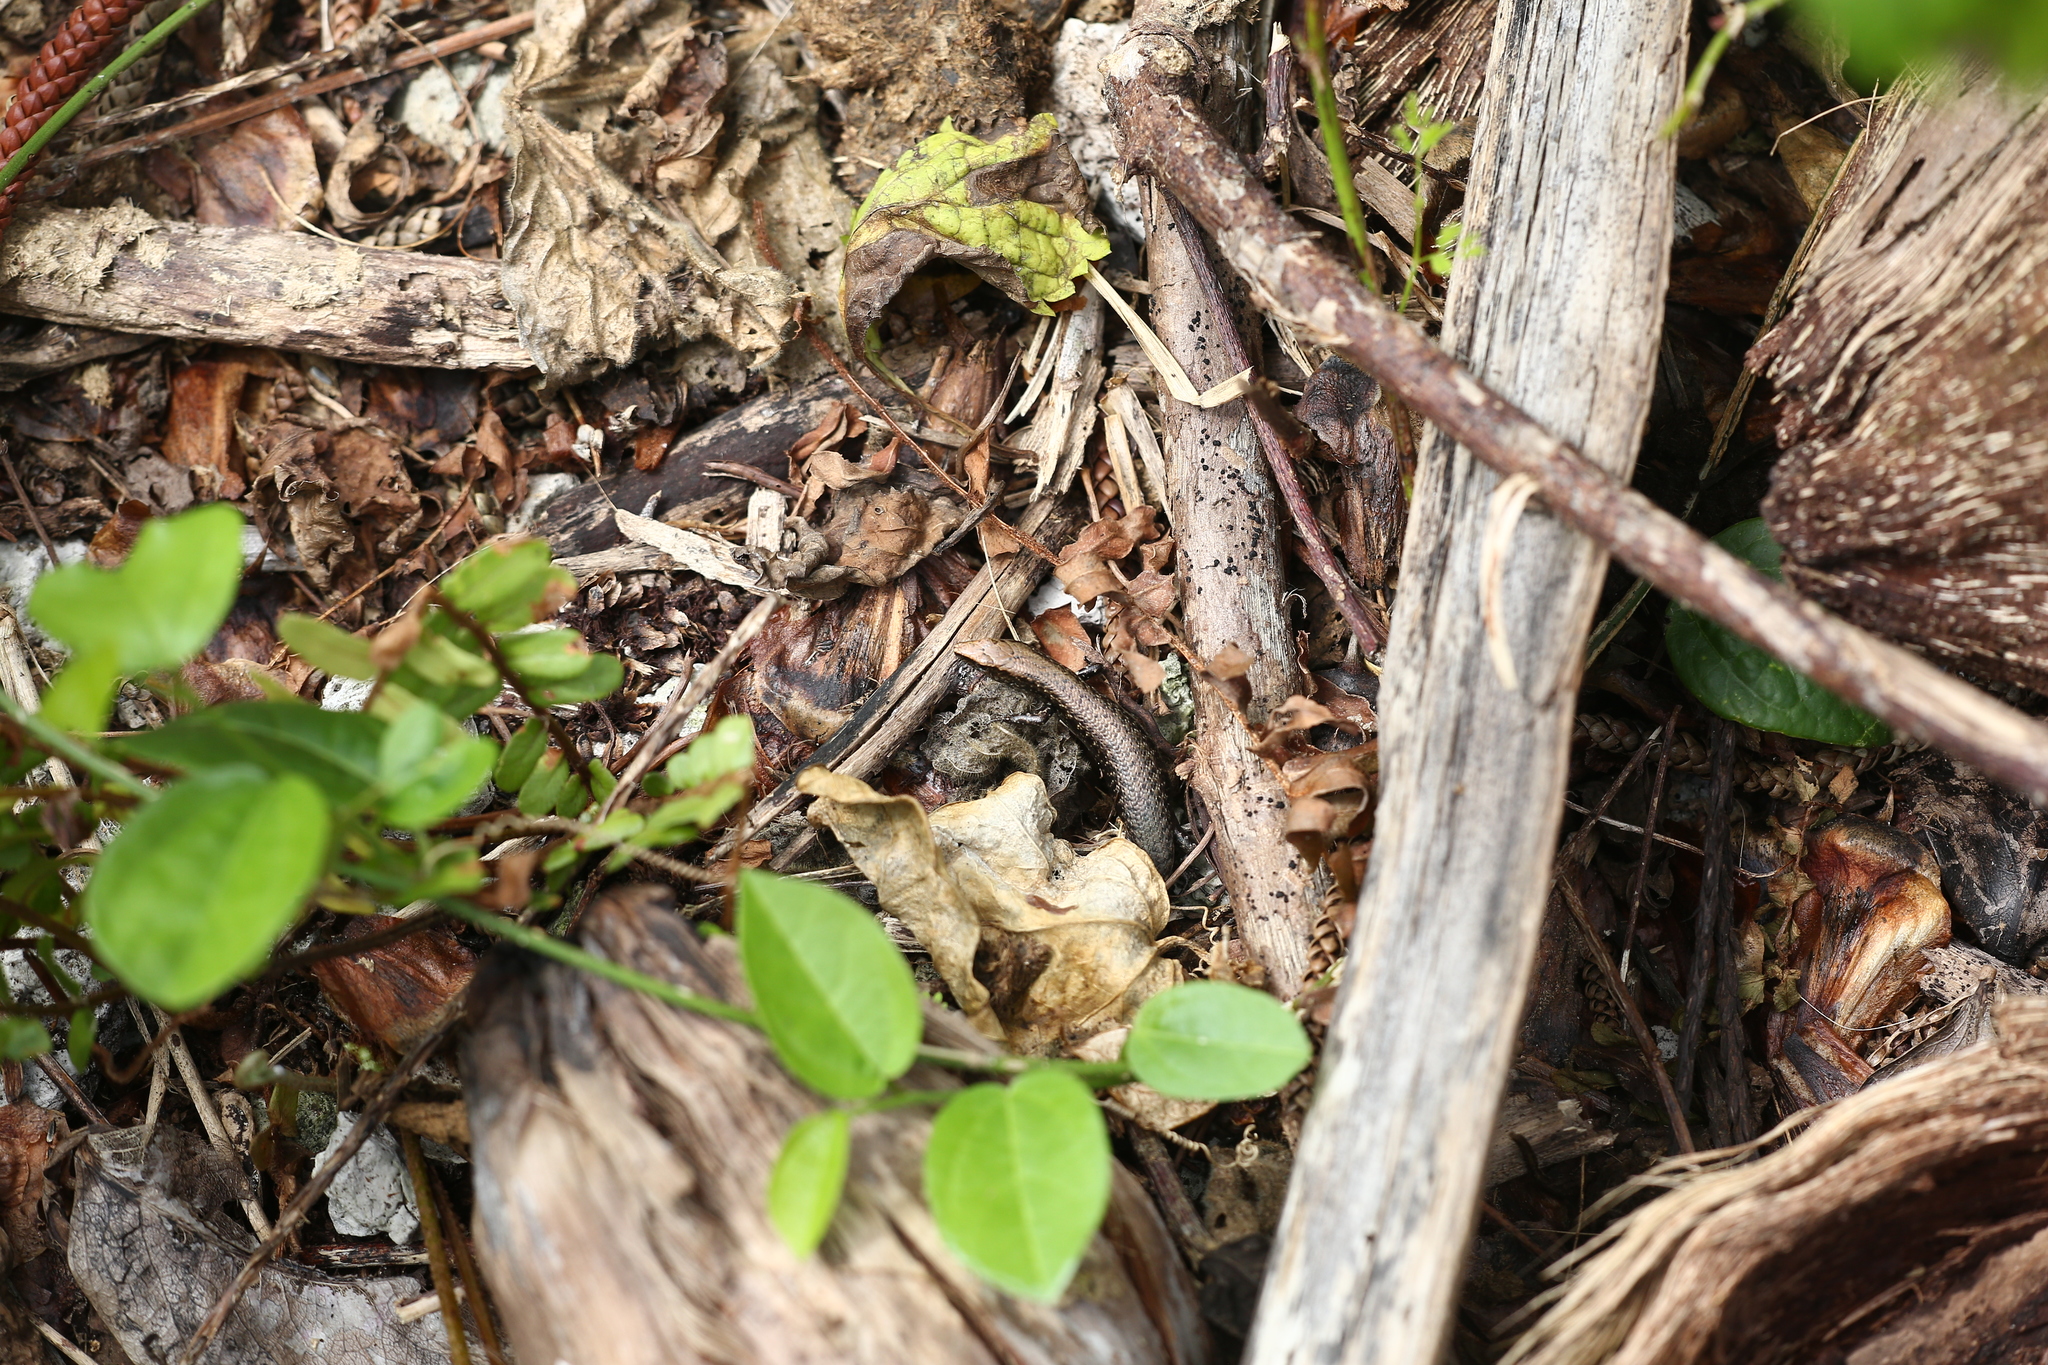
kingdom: Animalia
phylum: Chordata
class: Squamata
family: Scincidae
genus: Caledoniscincus
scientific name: Caledoniscincus austrocaledonicus
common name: Common litter skink
